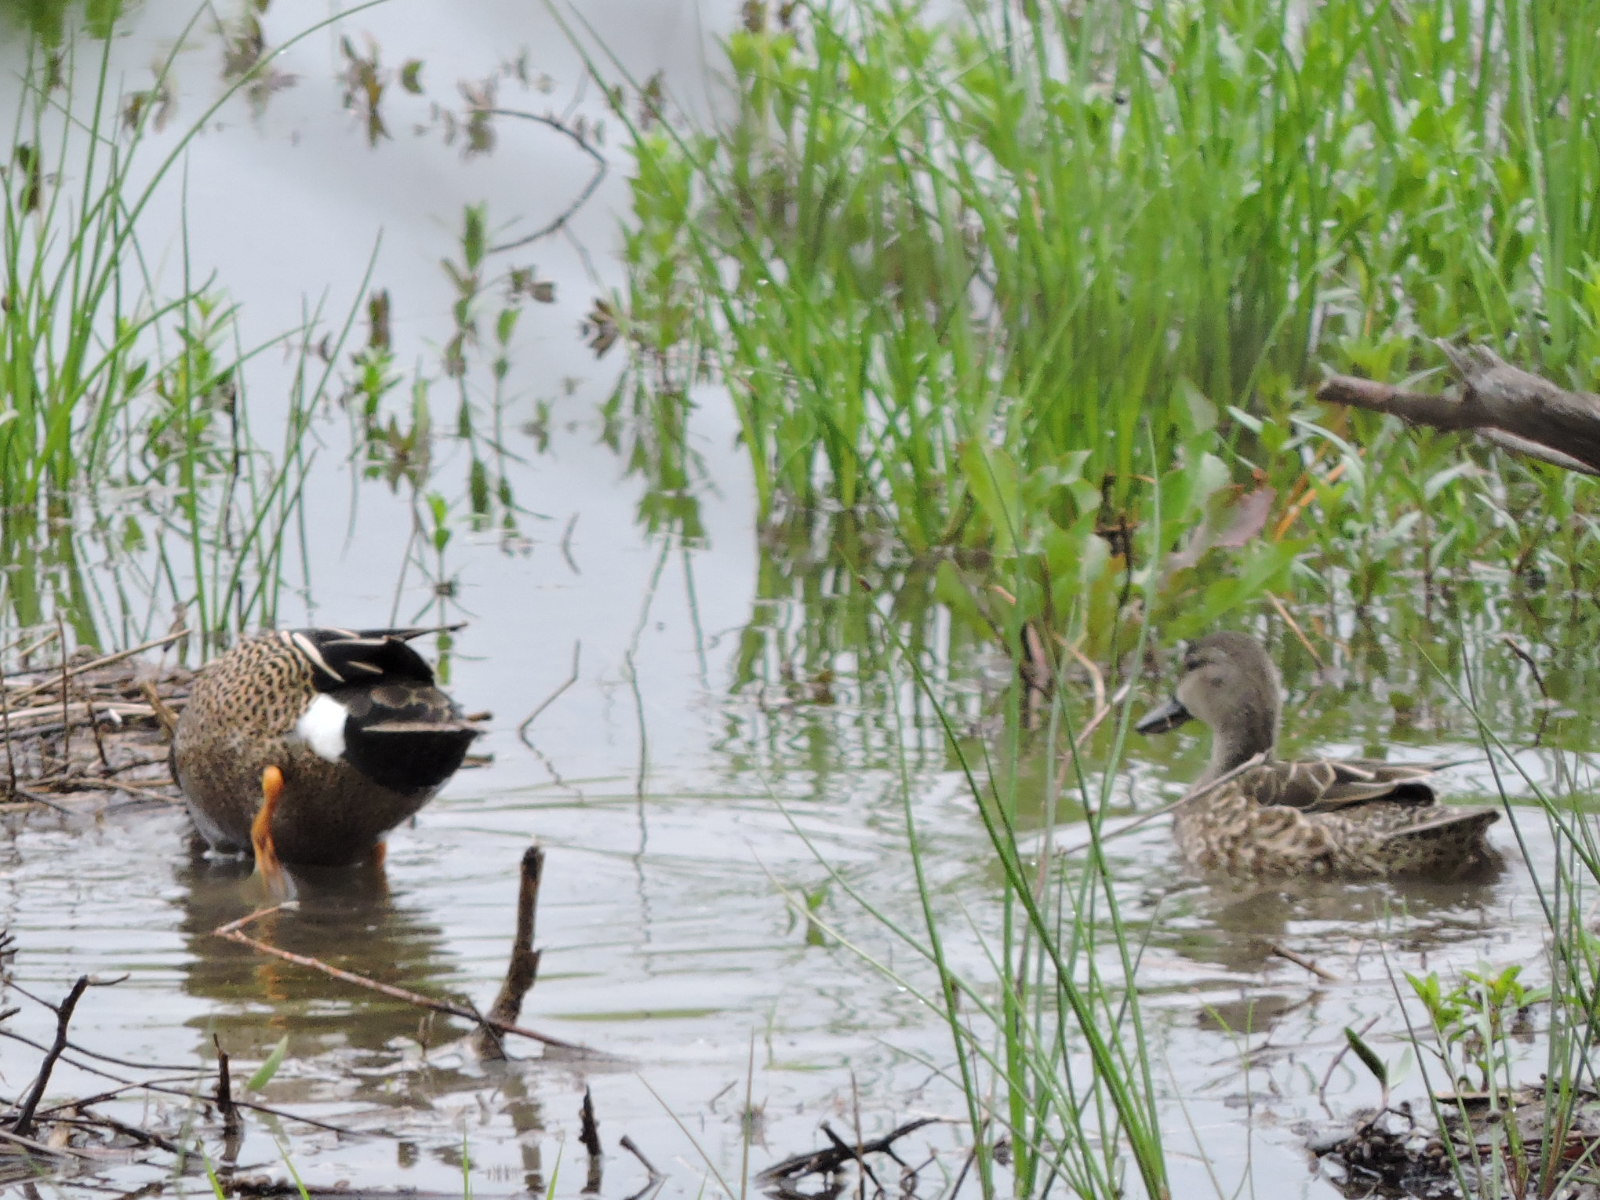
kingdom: Animalia
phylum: Chordata
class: Aves
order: Anseriformes
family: Anatidae
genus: Spatula
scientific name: Spatula discors
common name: Blue-winged teal
